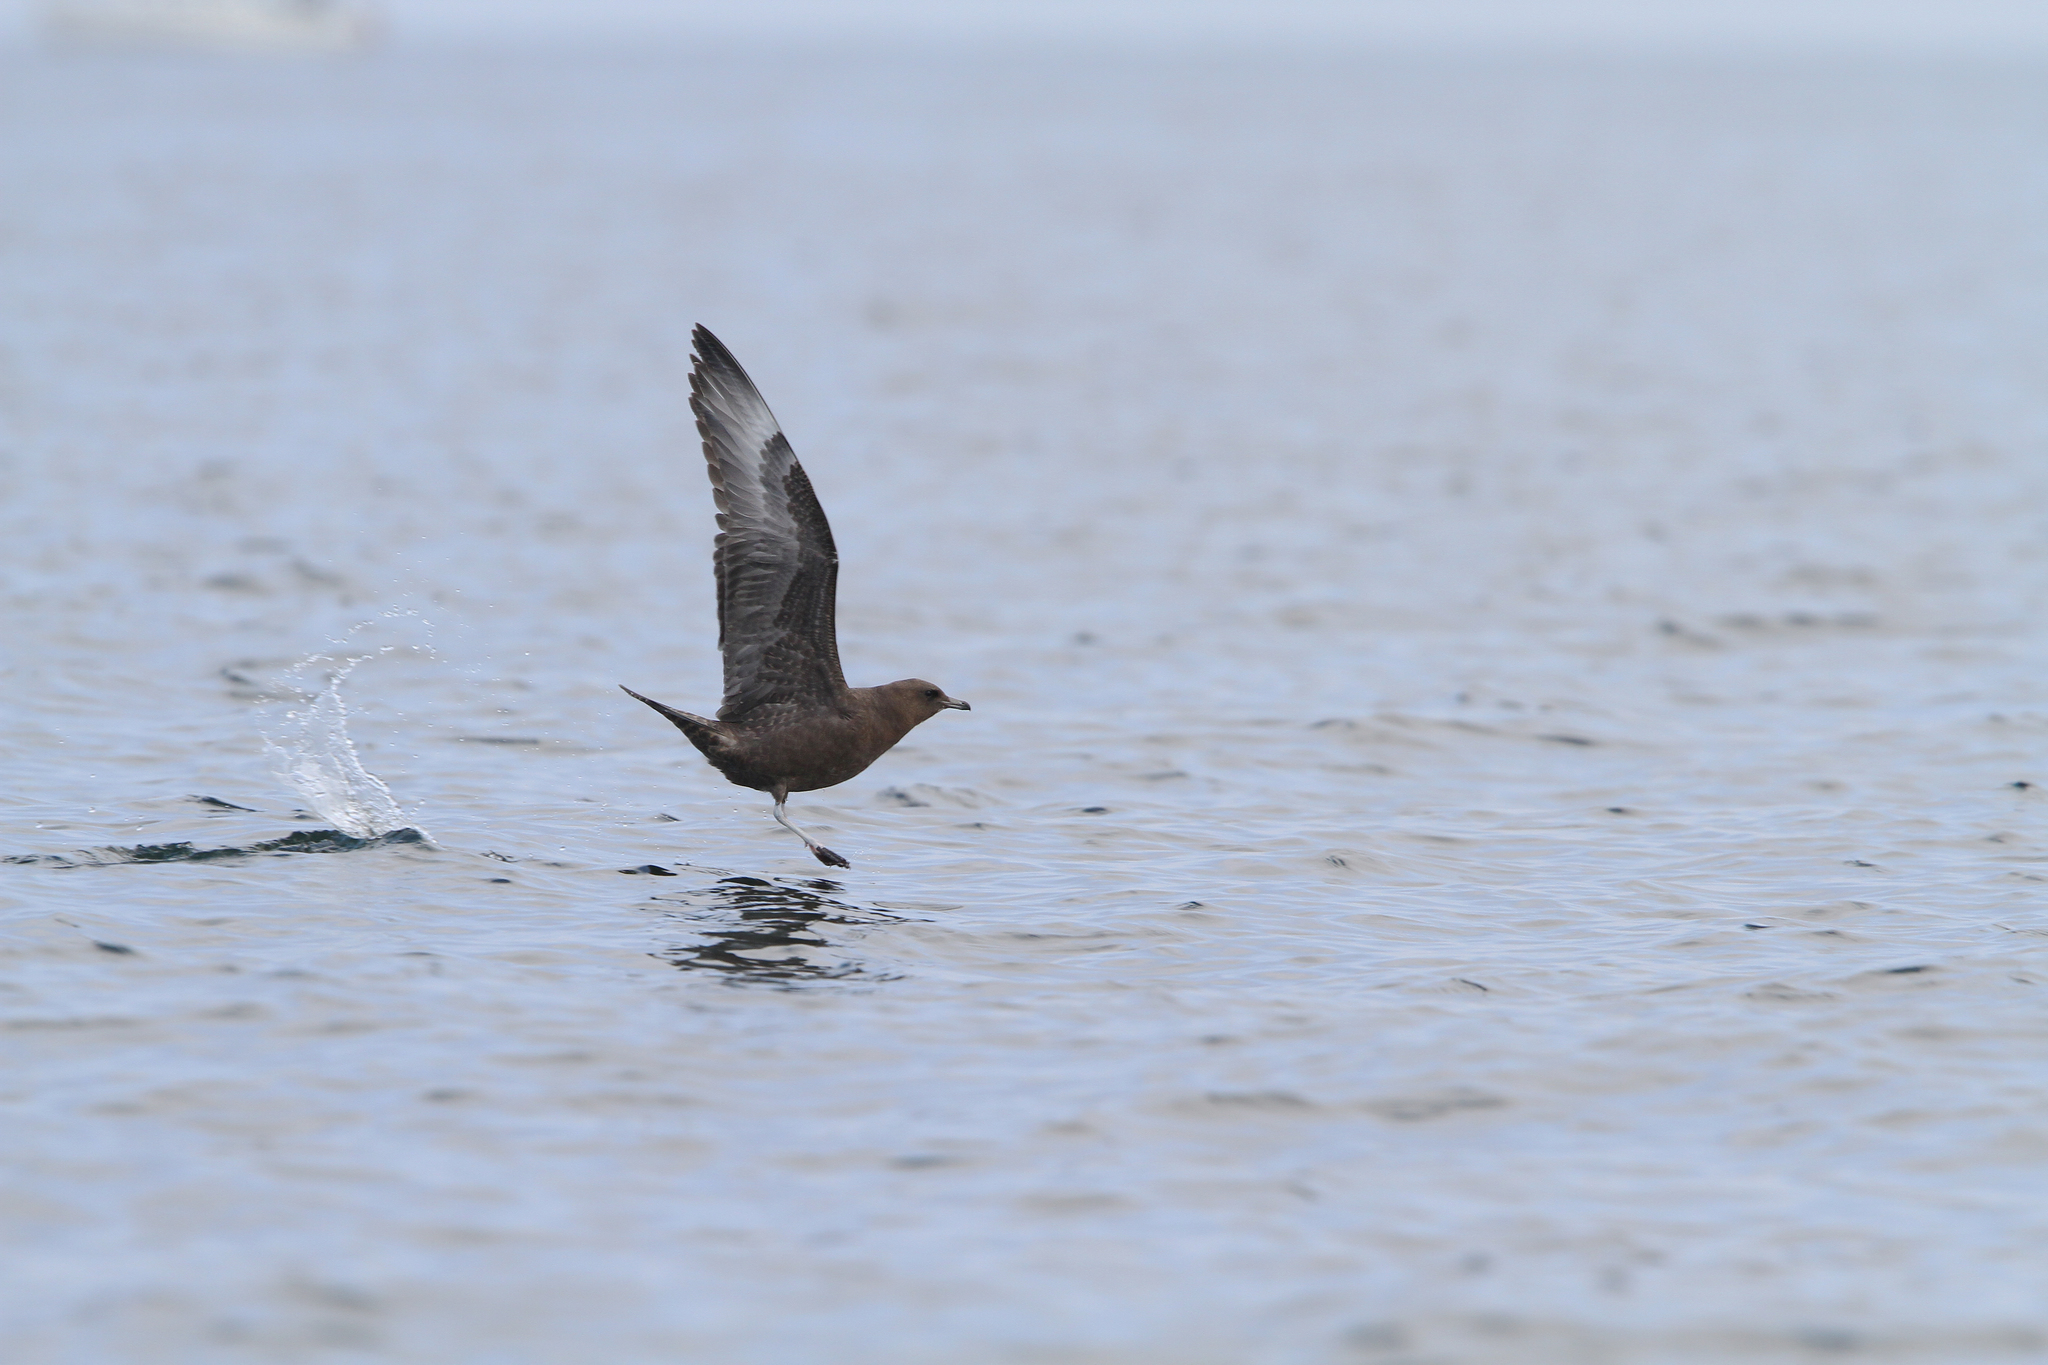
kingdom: Animalia
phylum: Chordata
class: Aves
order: Charadriiformes
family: Stercorariidae
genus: Stercorarius
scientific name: Stercorarius pomarinus
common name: Pomarine jaeger
